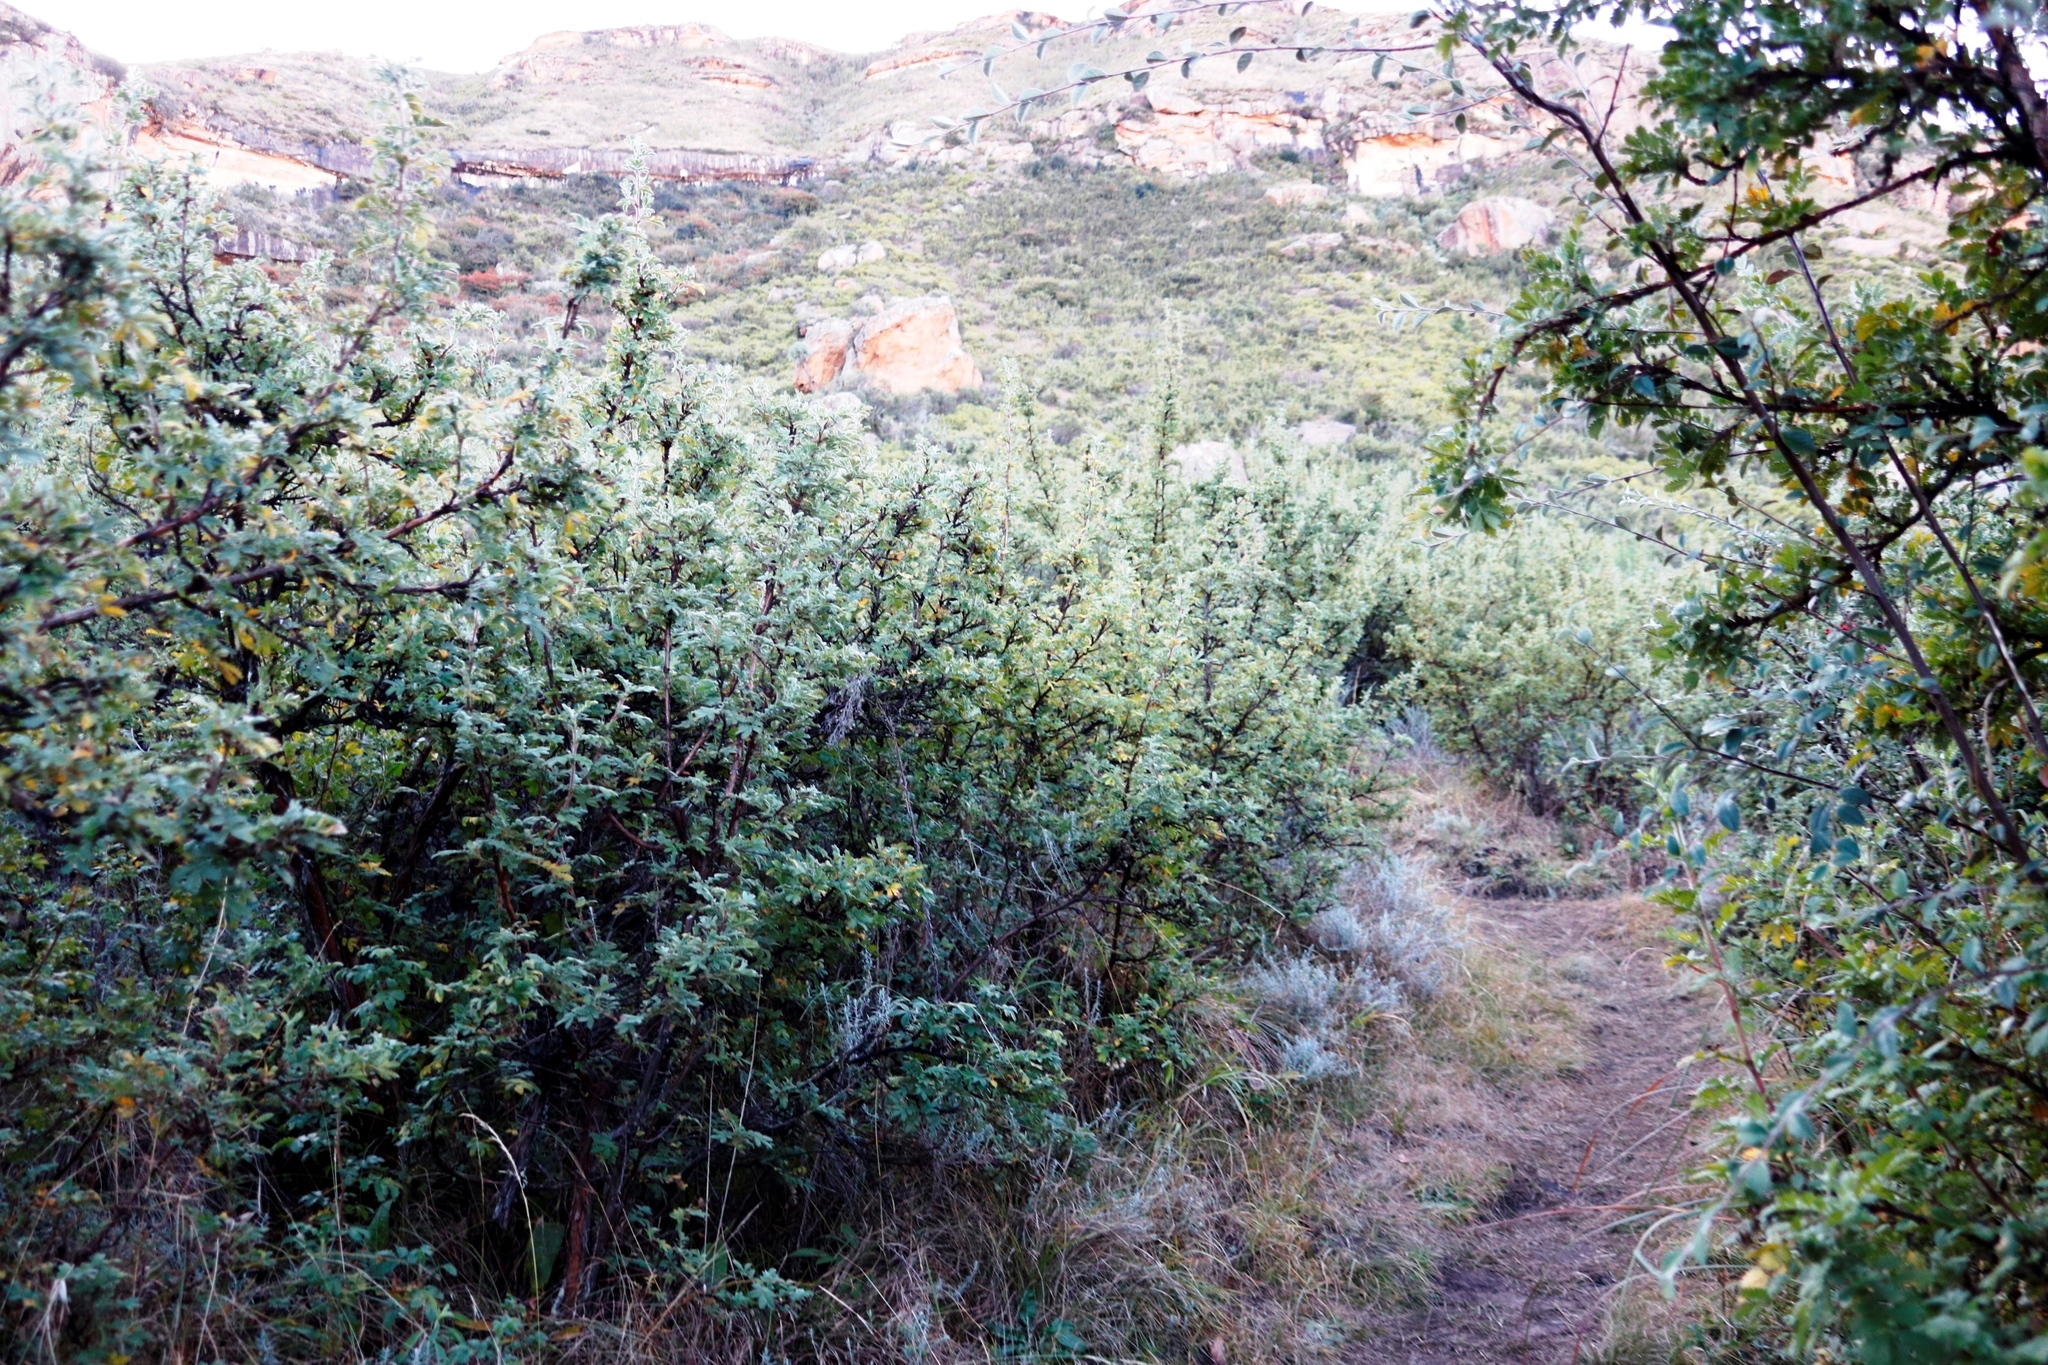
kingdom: Plantae
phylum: Tracheophyta
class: Magnoliopsida
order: Rosales
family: Rosaceae
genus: Leucosidea
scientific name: Leucosidea sericea
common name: Oldwood
